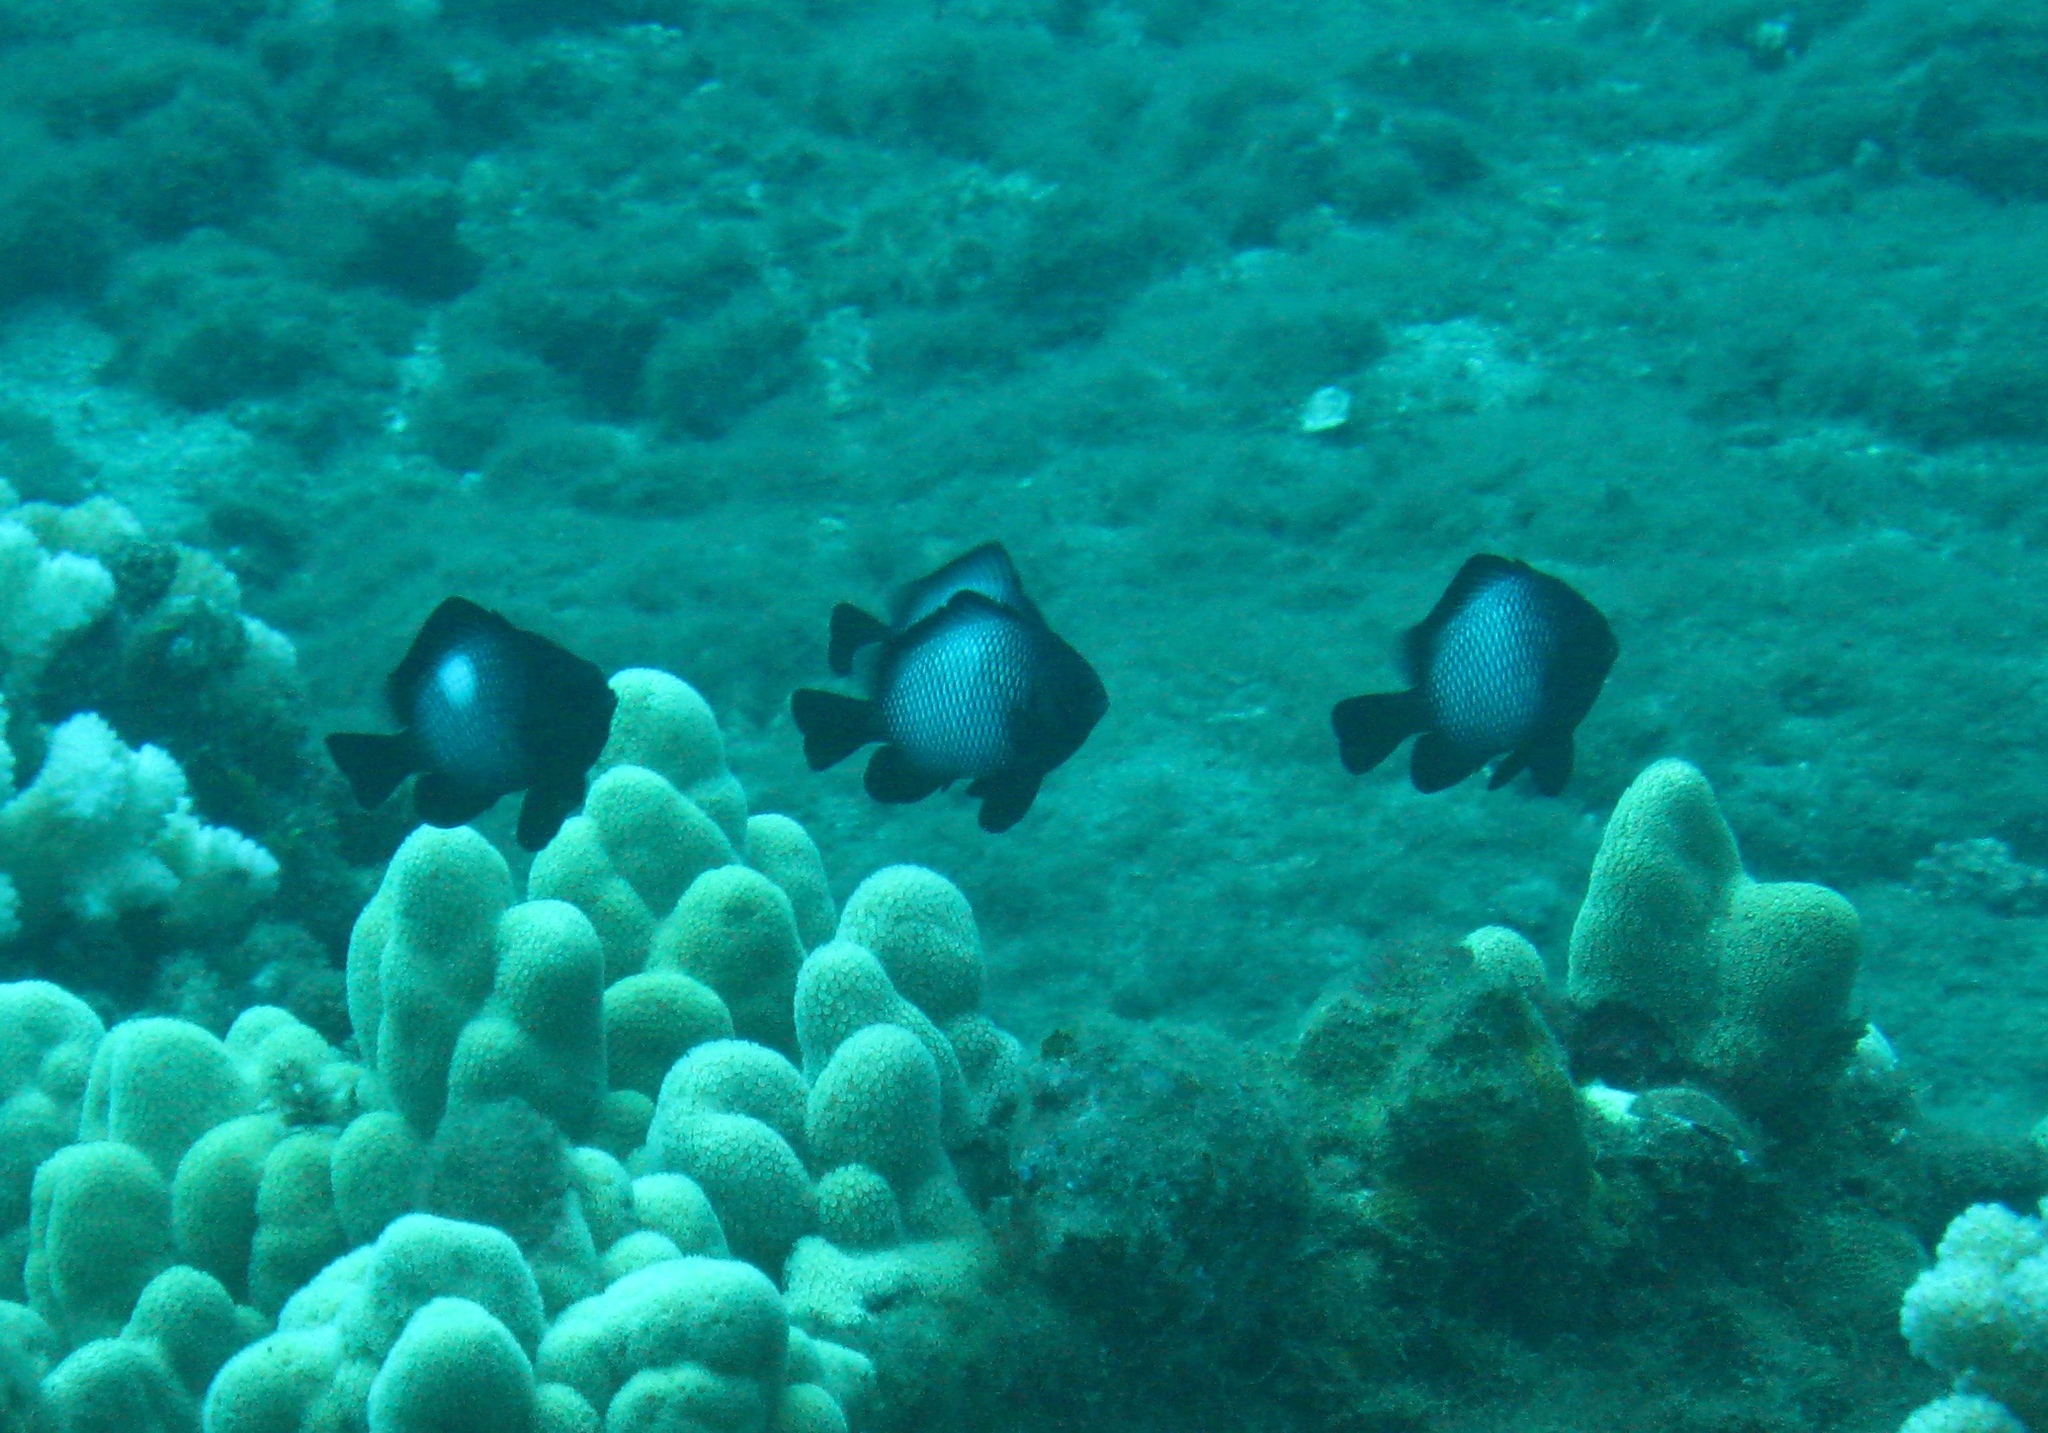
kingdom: Animalia
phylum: Chordata
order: Perciformes
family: Pomacentridae
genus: Dascyllus
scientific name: Dascyllus albisella
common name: Hawaiian dascyllus
